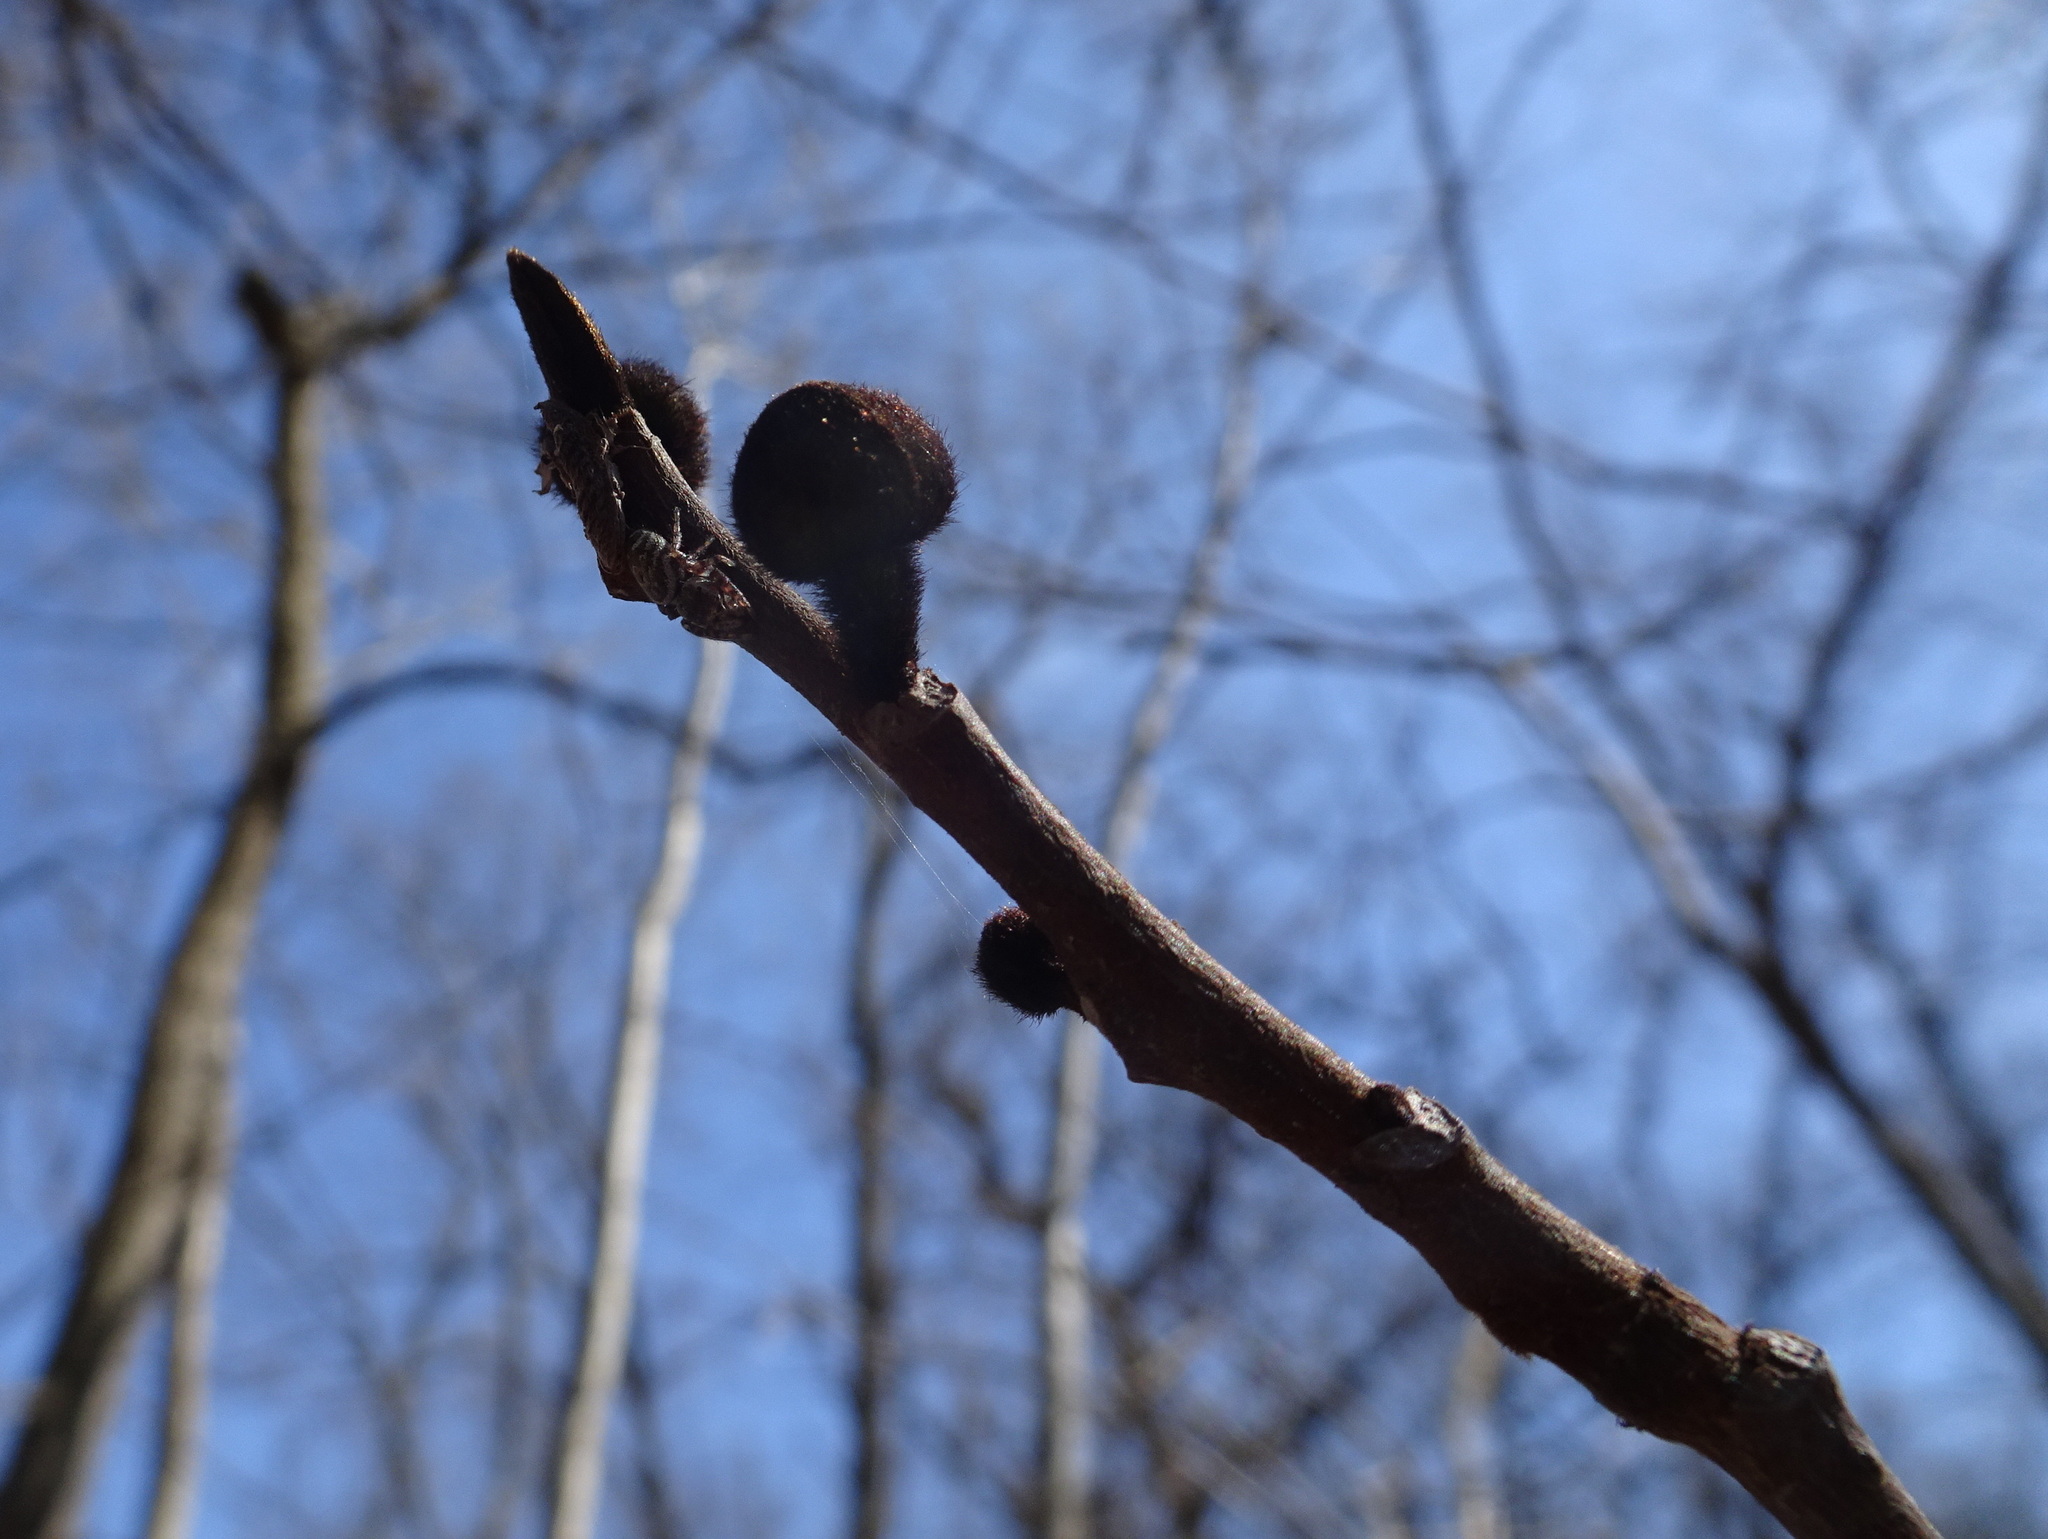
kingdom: Plantae
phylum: Tracheophyta
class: Magnoliopsida
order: Magnoliales
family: Annonaceae
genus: Asimina
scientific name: Asimina triloba
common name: Dog-banana
